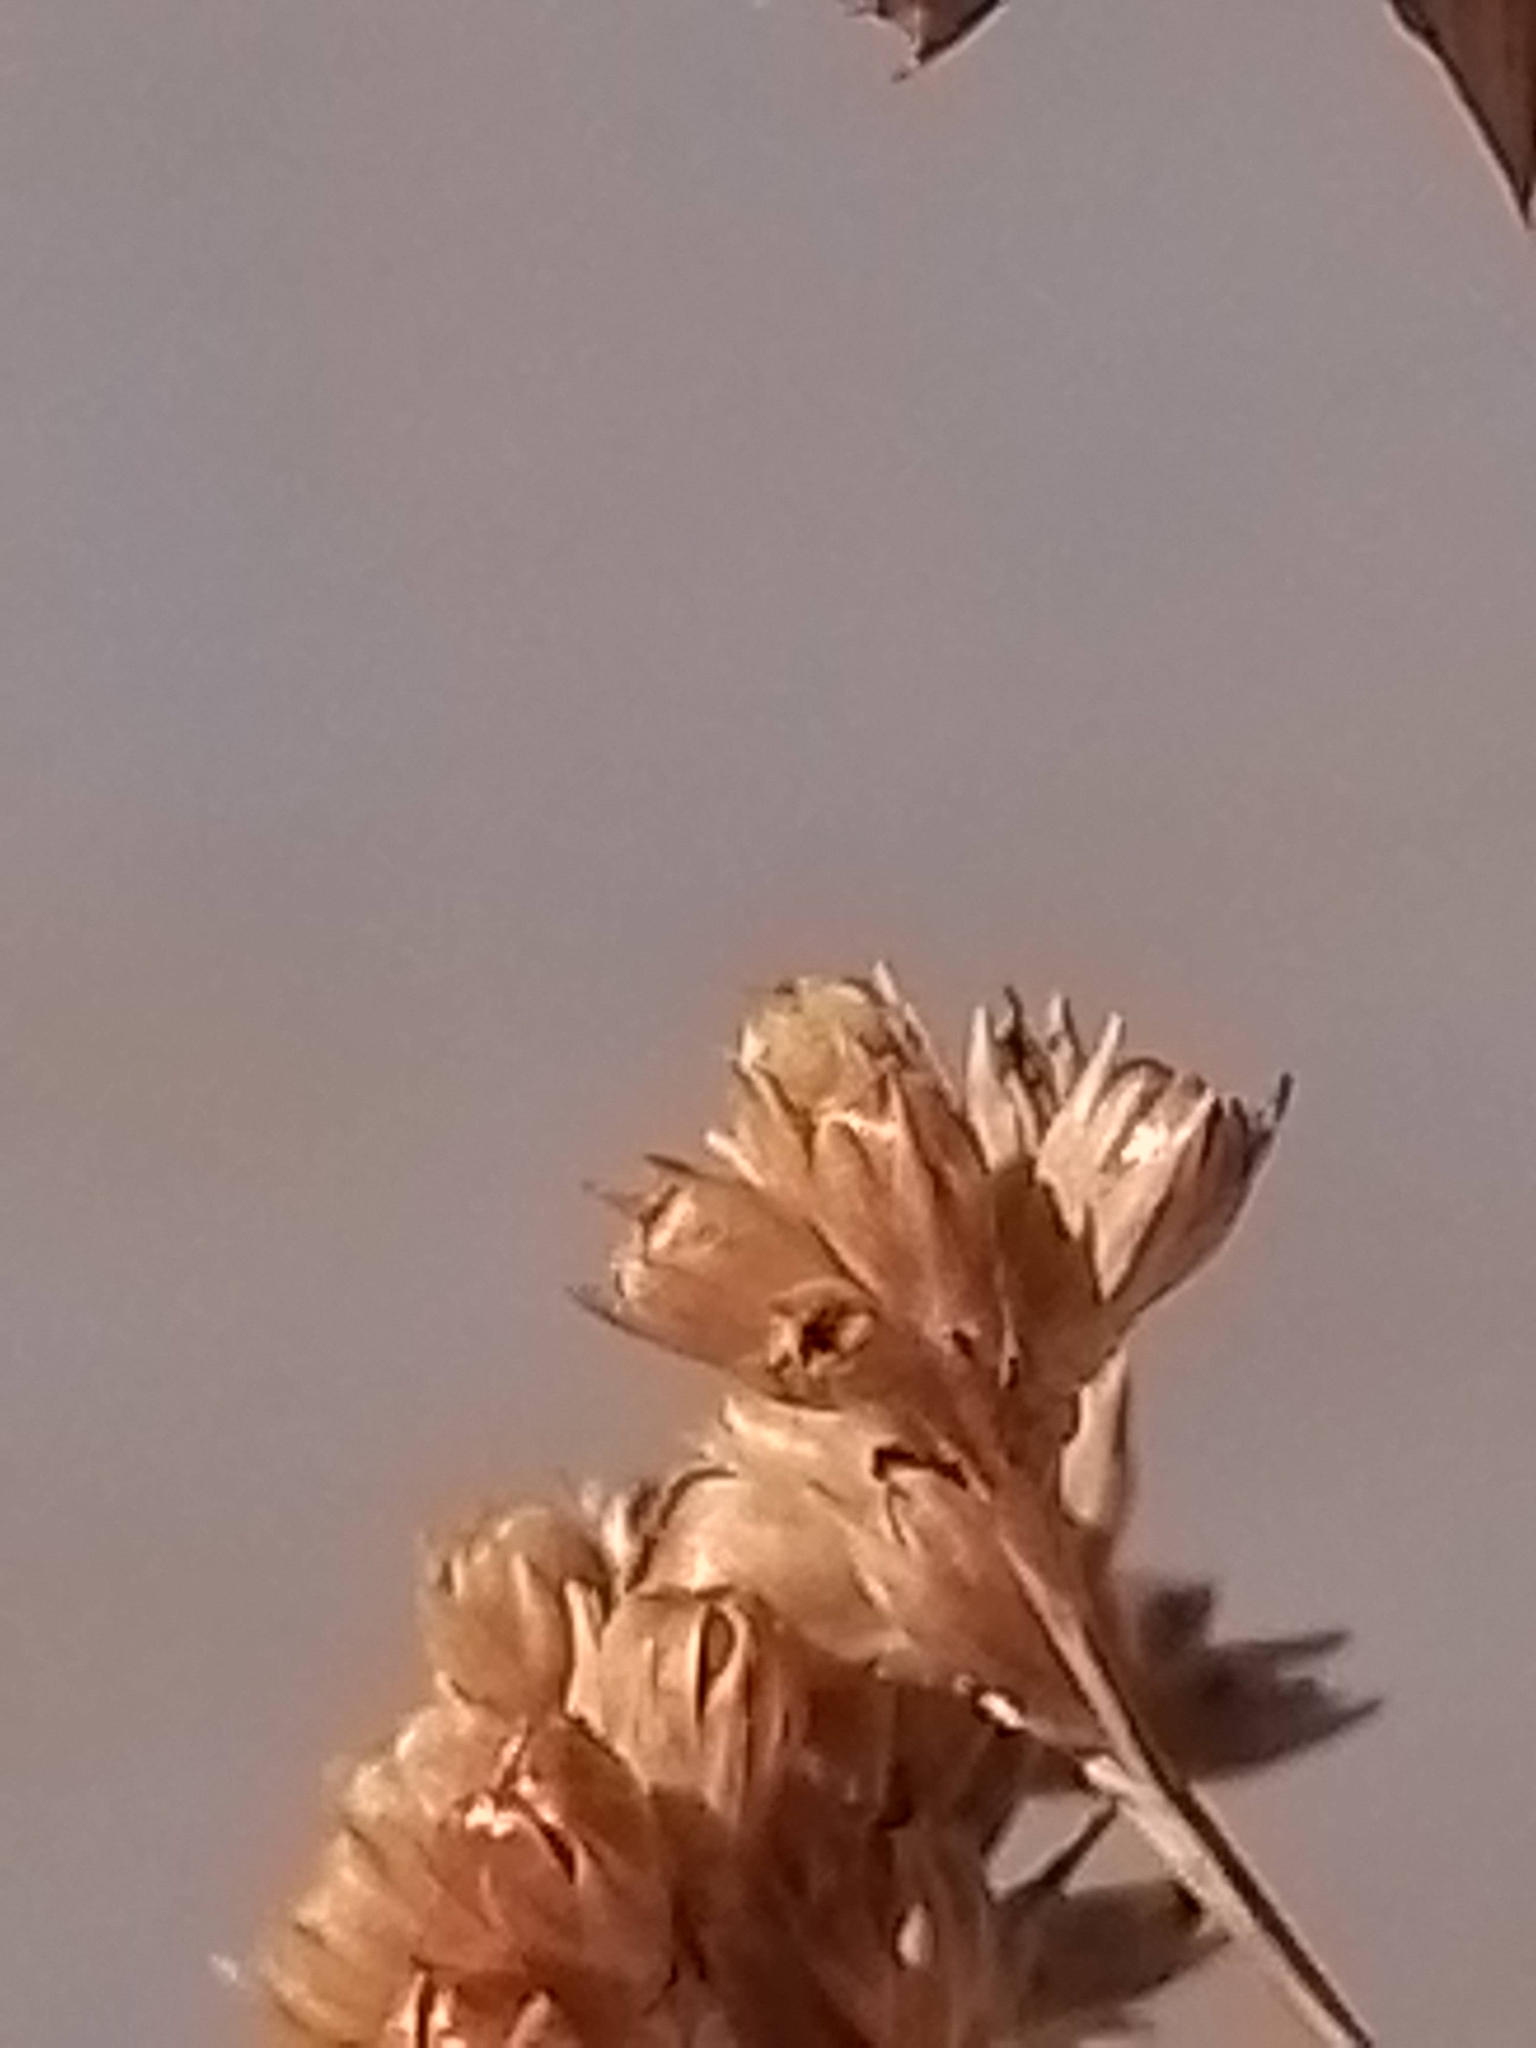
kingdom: Plantae
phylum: Tracheophyta
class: Liliopsida
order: Poales
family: Juncaceae
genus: Juncus
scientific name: Juncus gregiflorus
